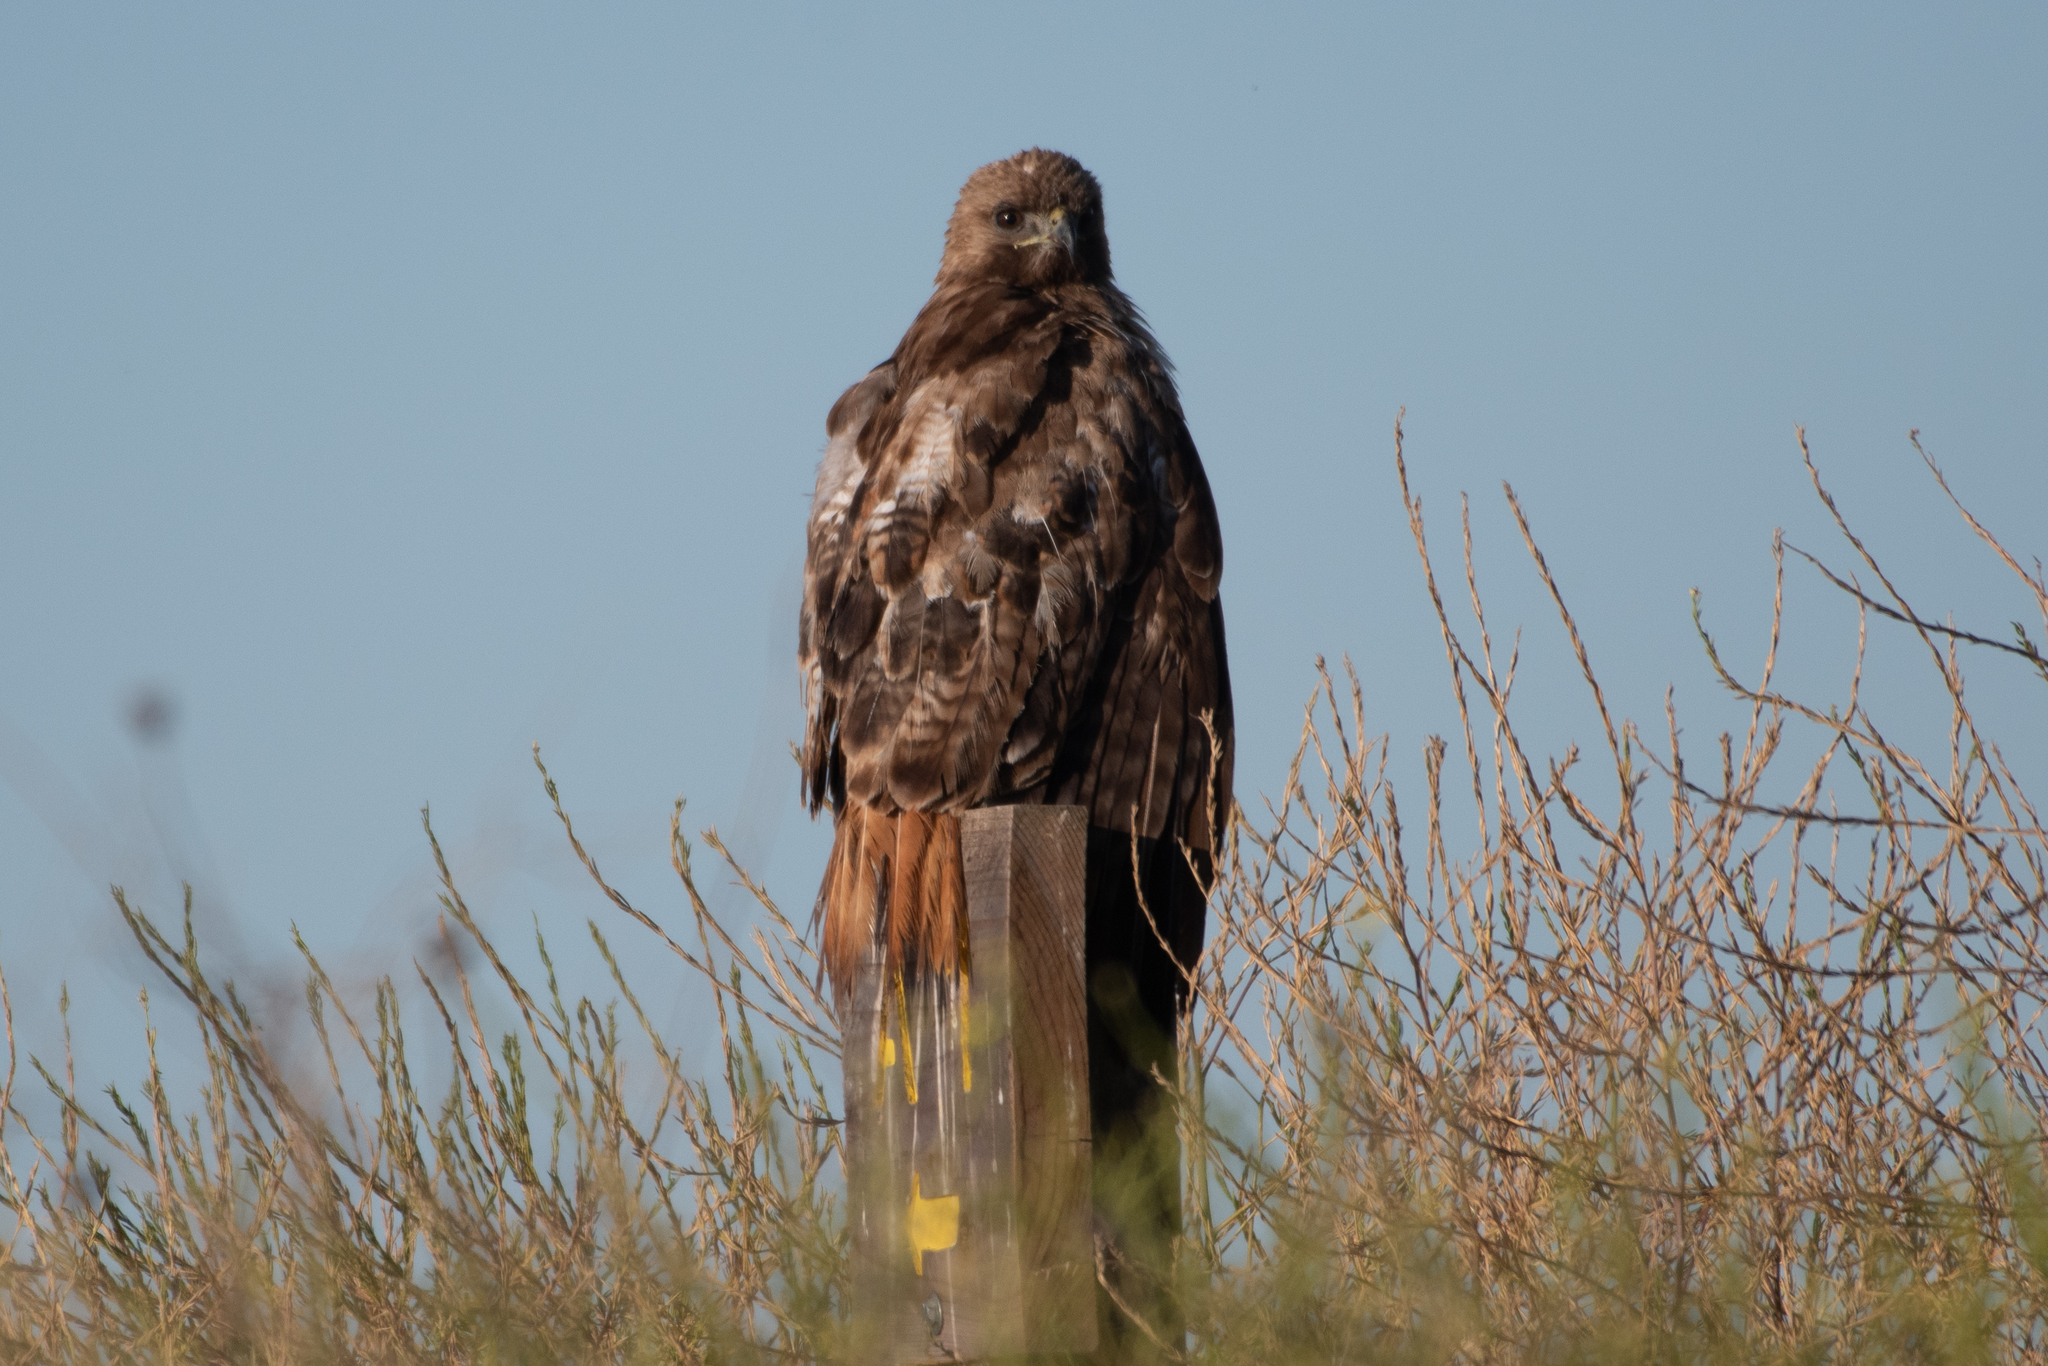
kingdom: Animalia
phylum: Chordata
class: Aves
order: Accipitriformes
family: Accipitridae
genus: Buteo
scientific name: Buteo jamaicensis
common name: Red-tailed hawk
